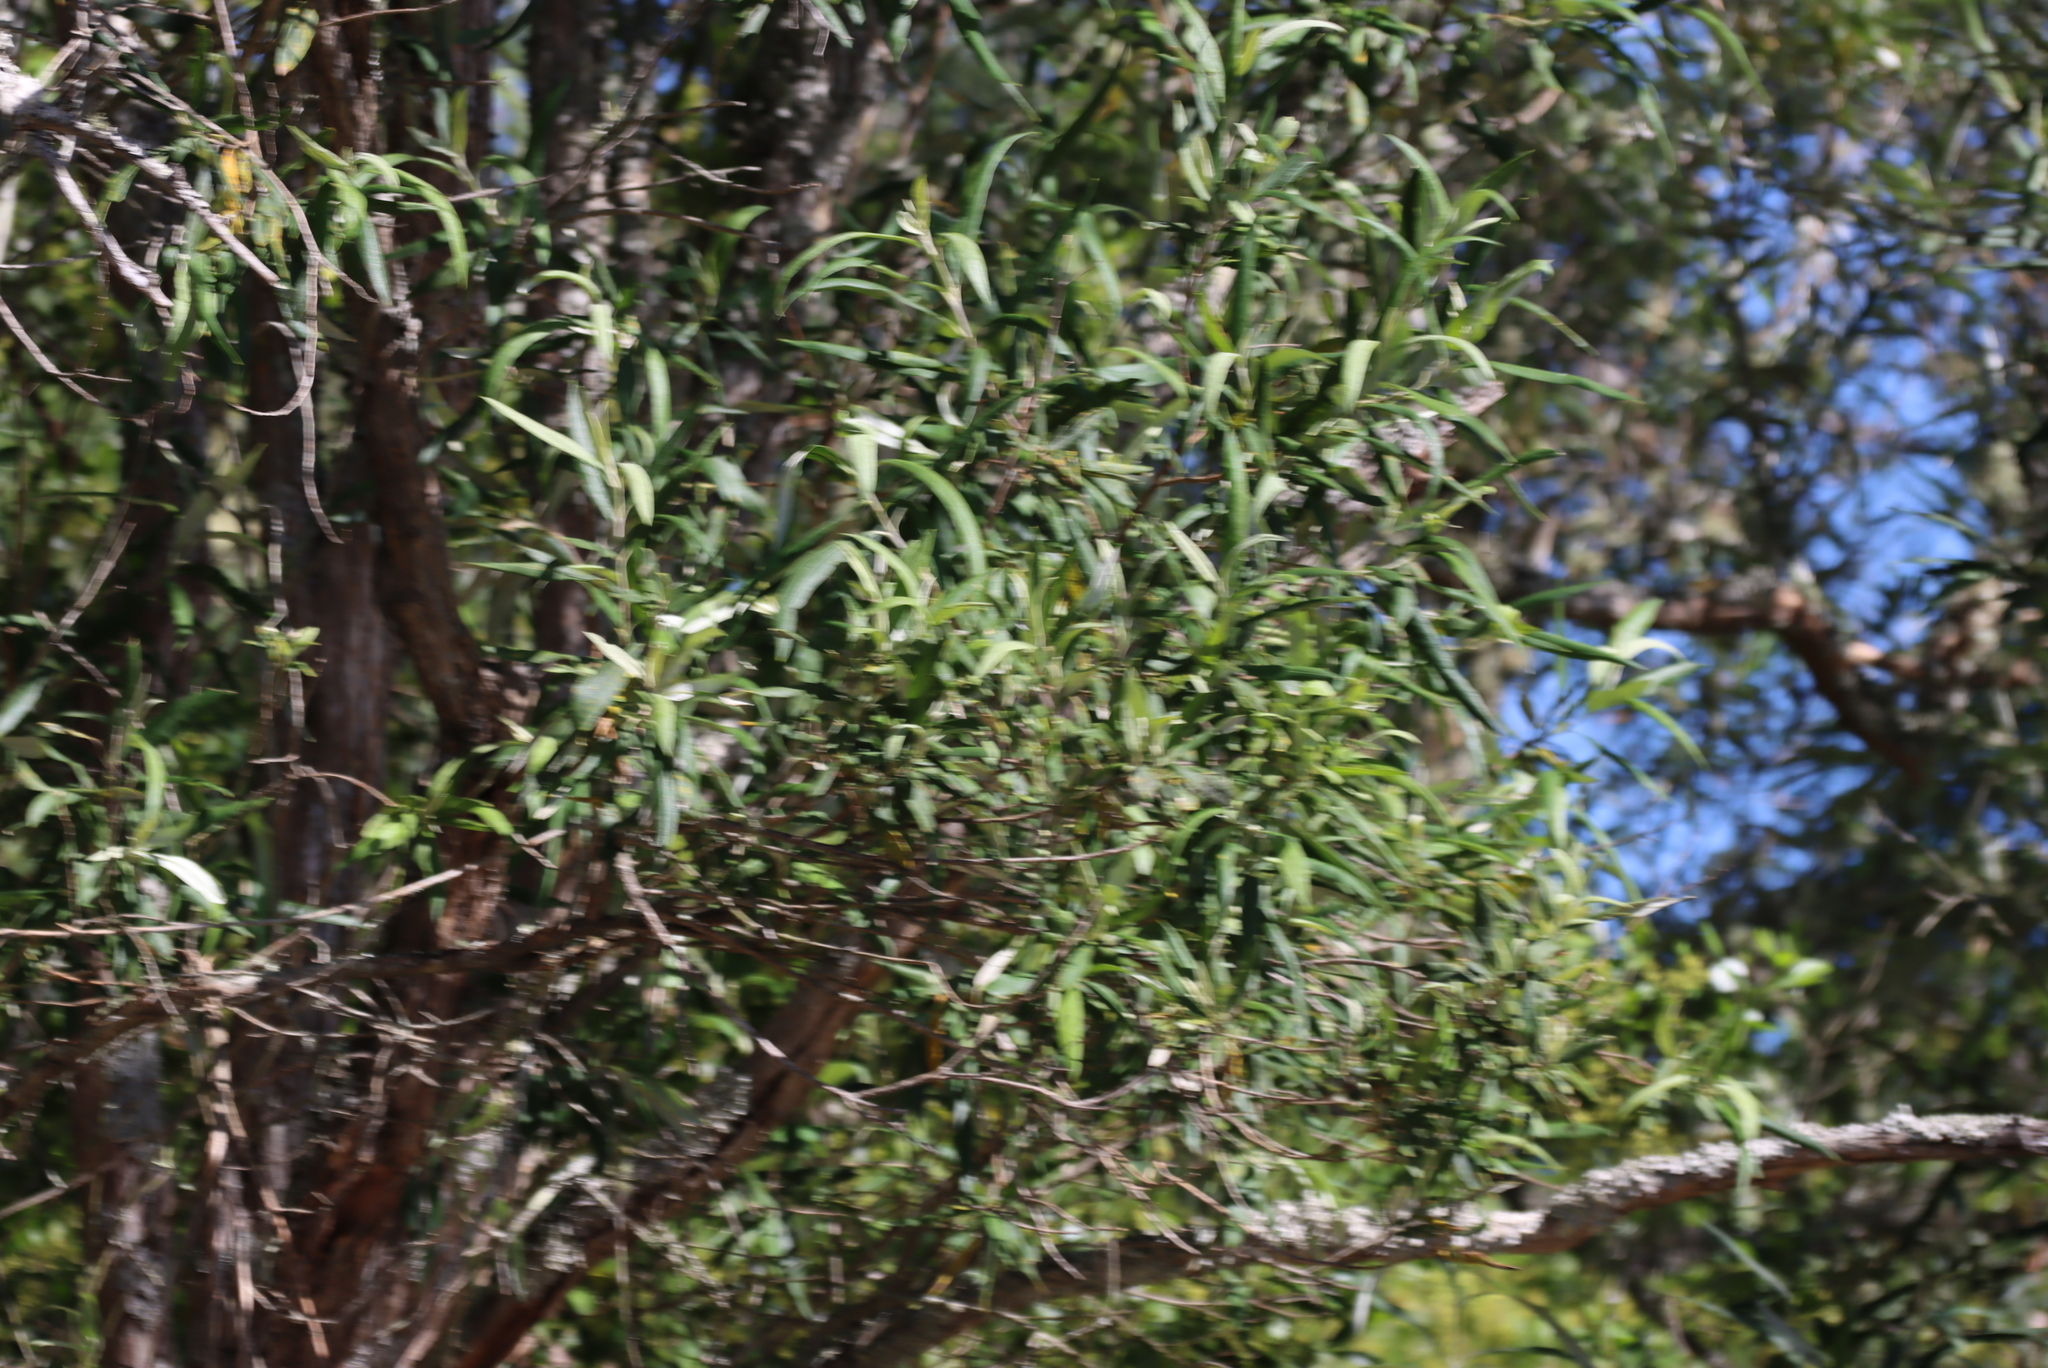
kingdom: Plantae
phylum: Tracheophyta
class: Magnoliopsida
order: Lamiales
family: Scrophulariaceae
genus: Buddleja
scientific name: Buddleja saligna
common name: False olive
